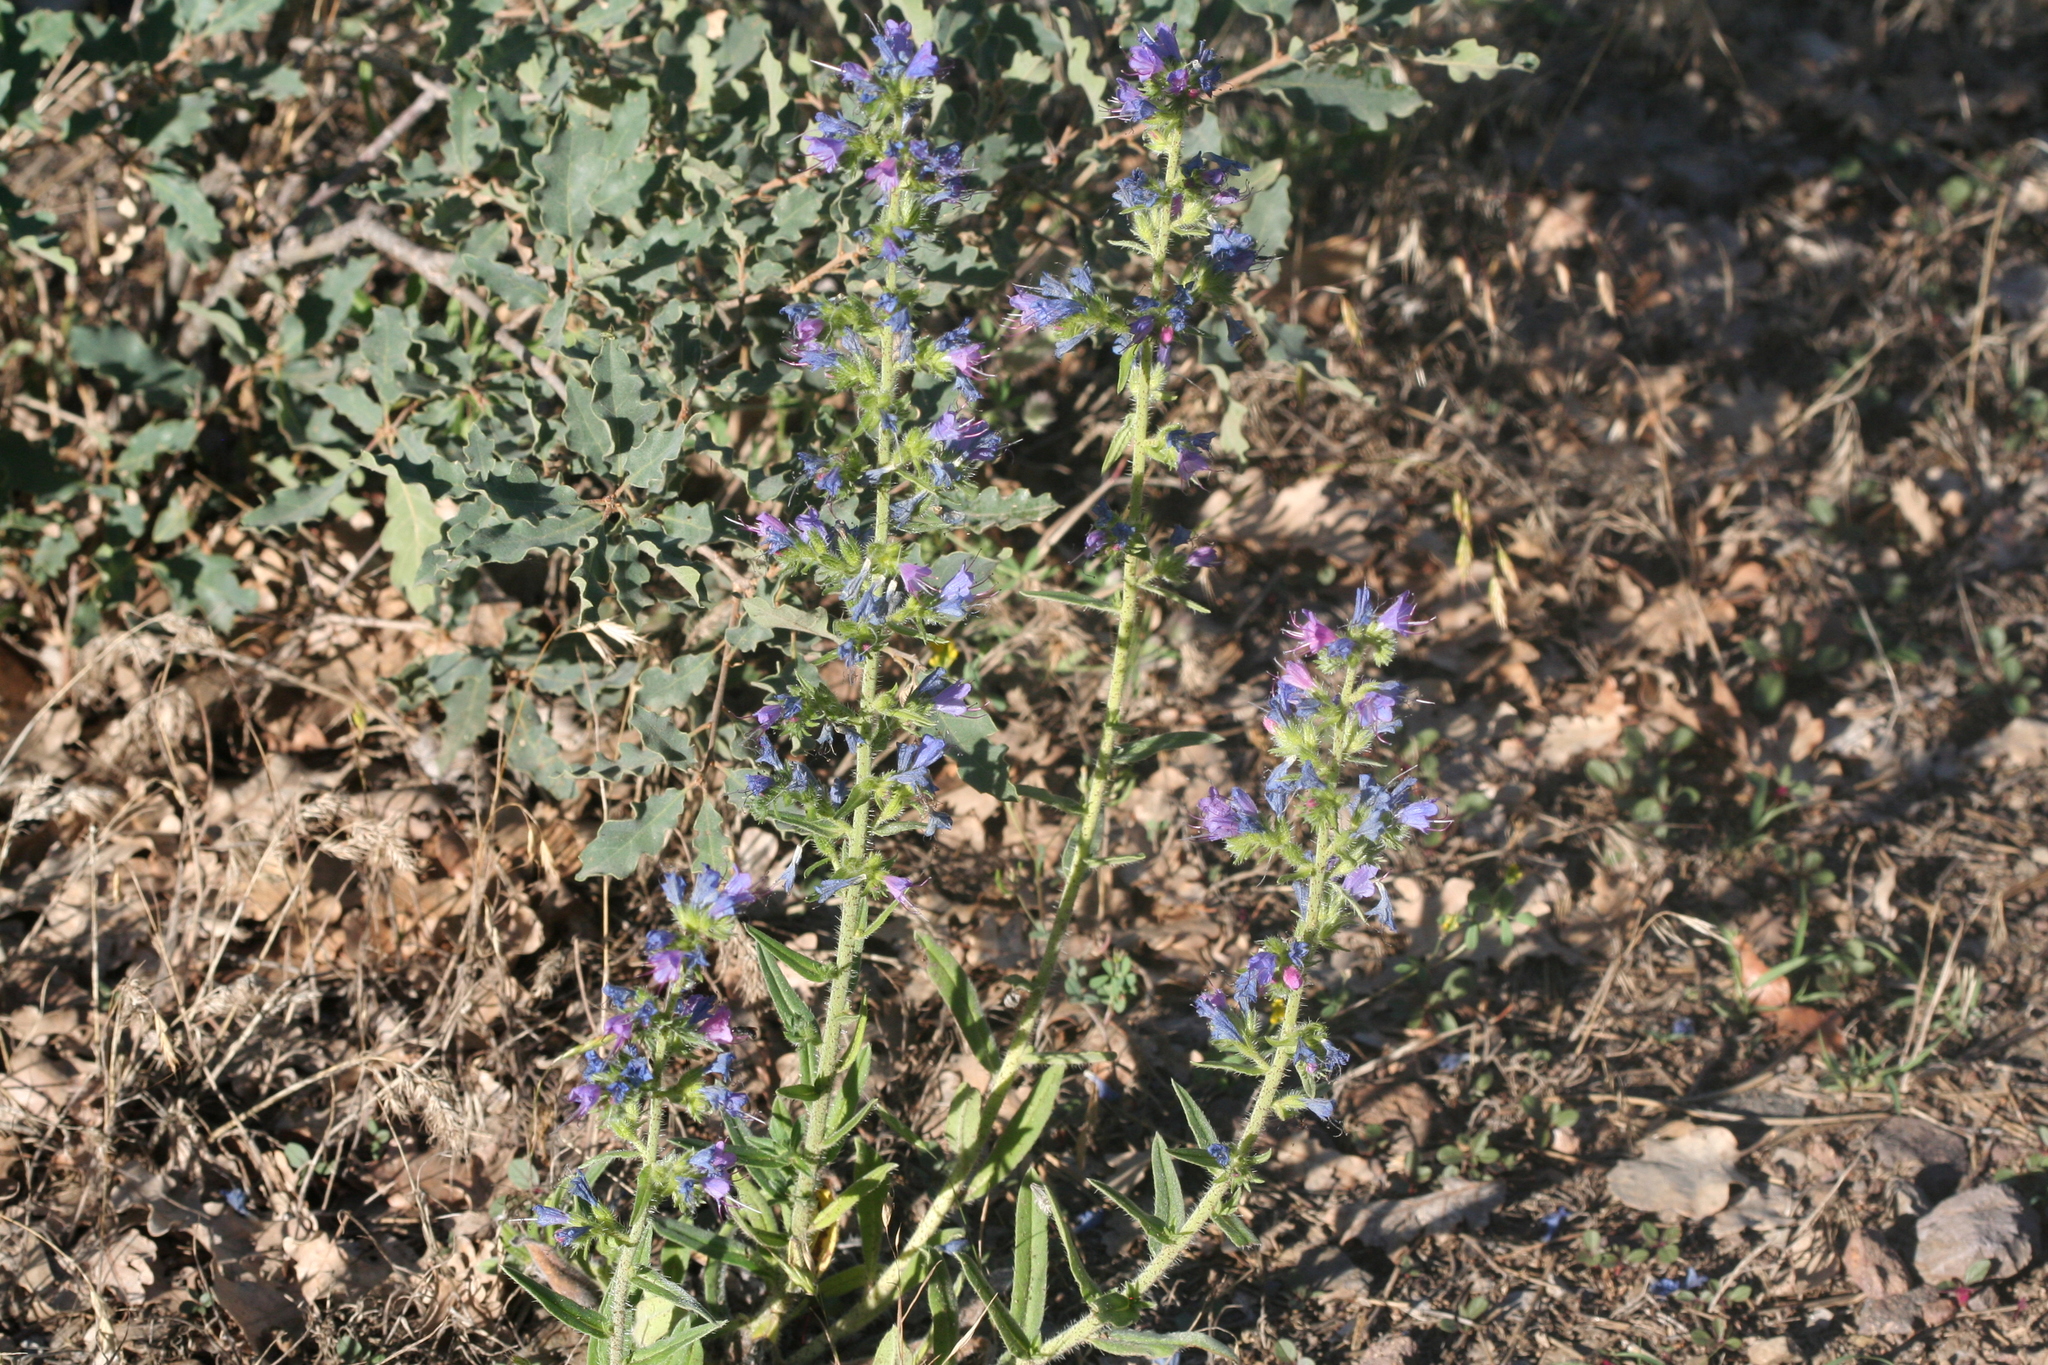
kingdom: Plantae
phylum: Tracheophyta
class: Magnoliopsida
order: Boraginales
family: Boraginaceae
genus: Echium
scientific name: Echium vulgare
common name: Common viper's bugloss
